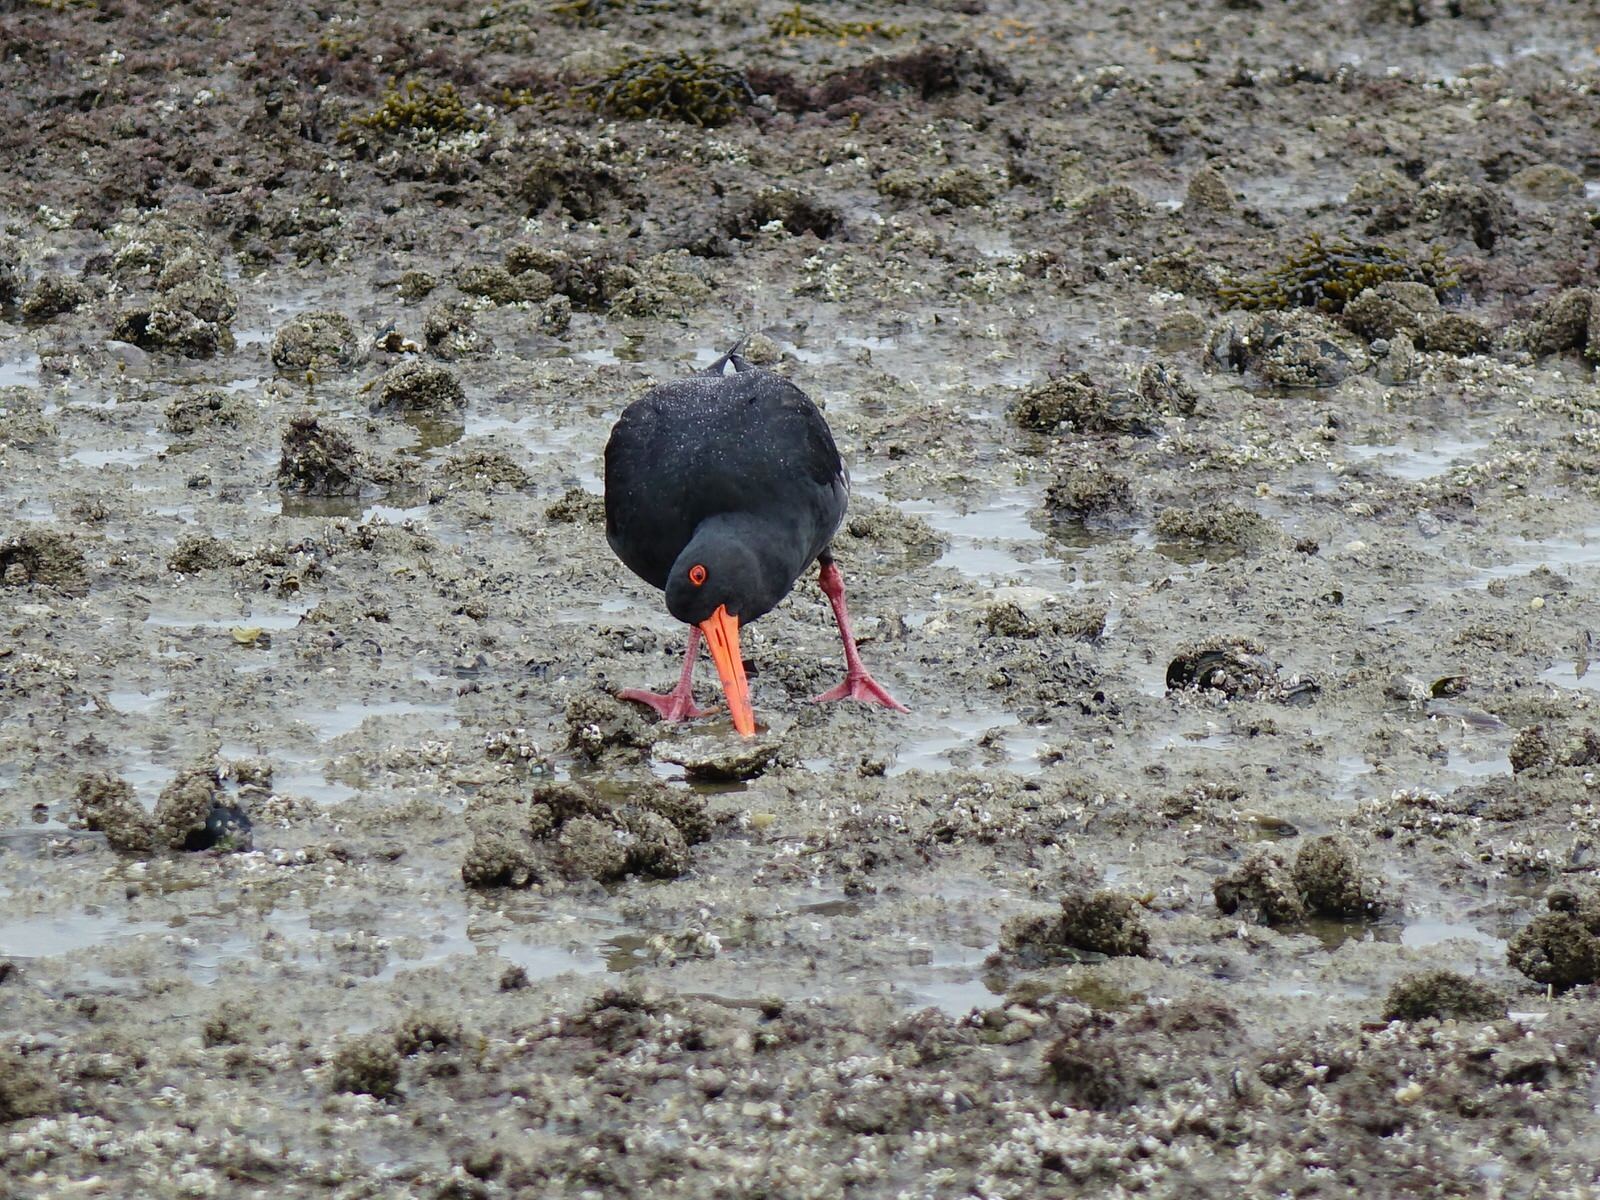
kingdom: Animalia
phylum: Chordata
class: Aves
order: Charadriiformes
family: Haematopodidae
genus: Haematopus
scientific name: Haematopus unicolor
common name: Variable oystercatcher
